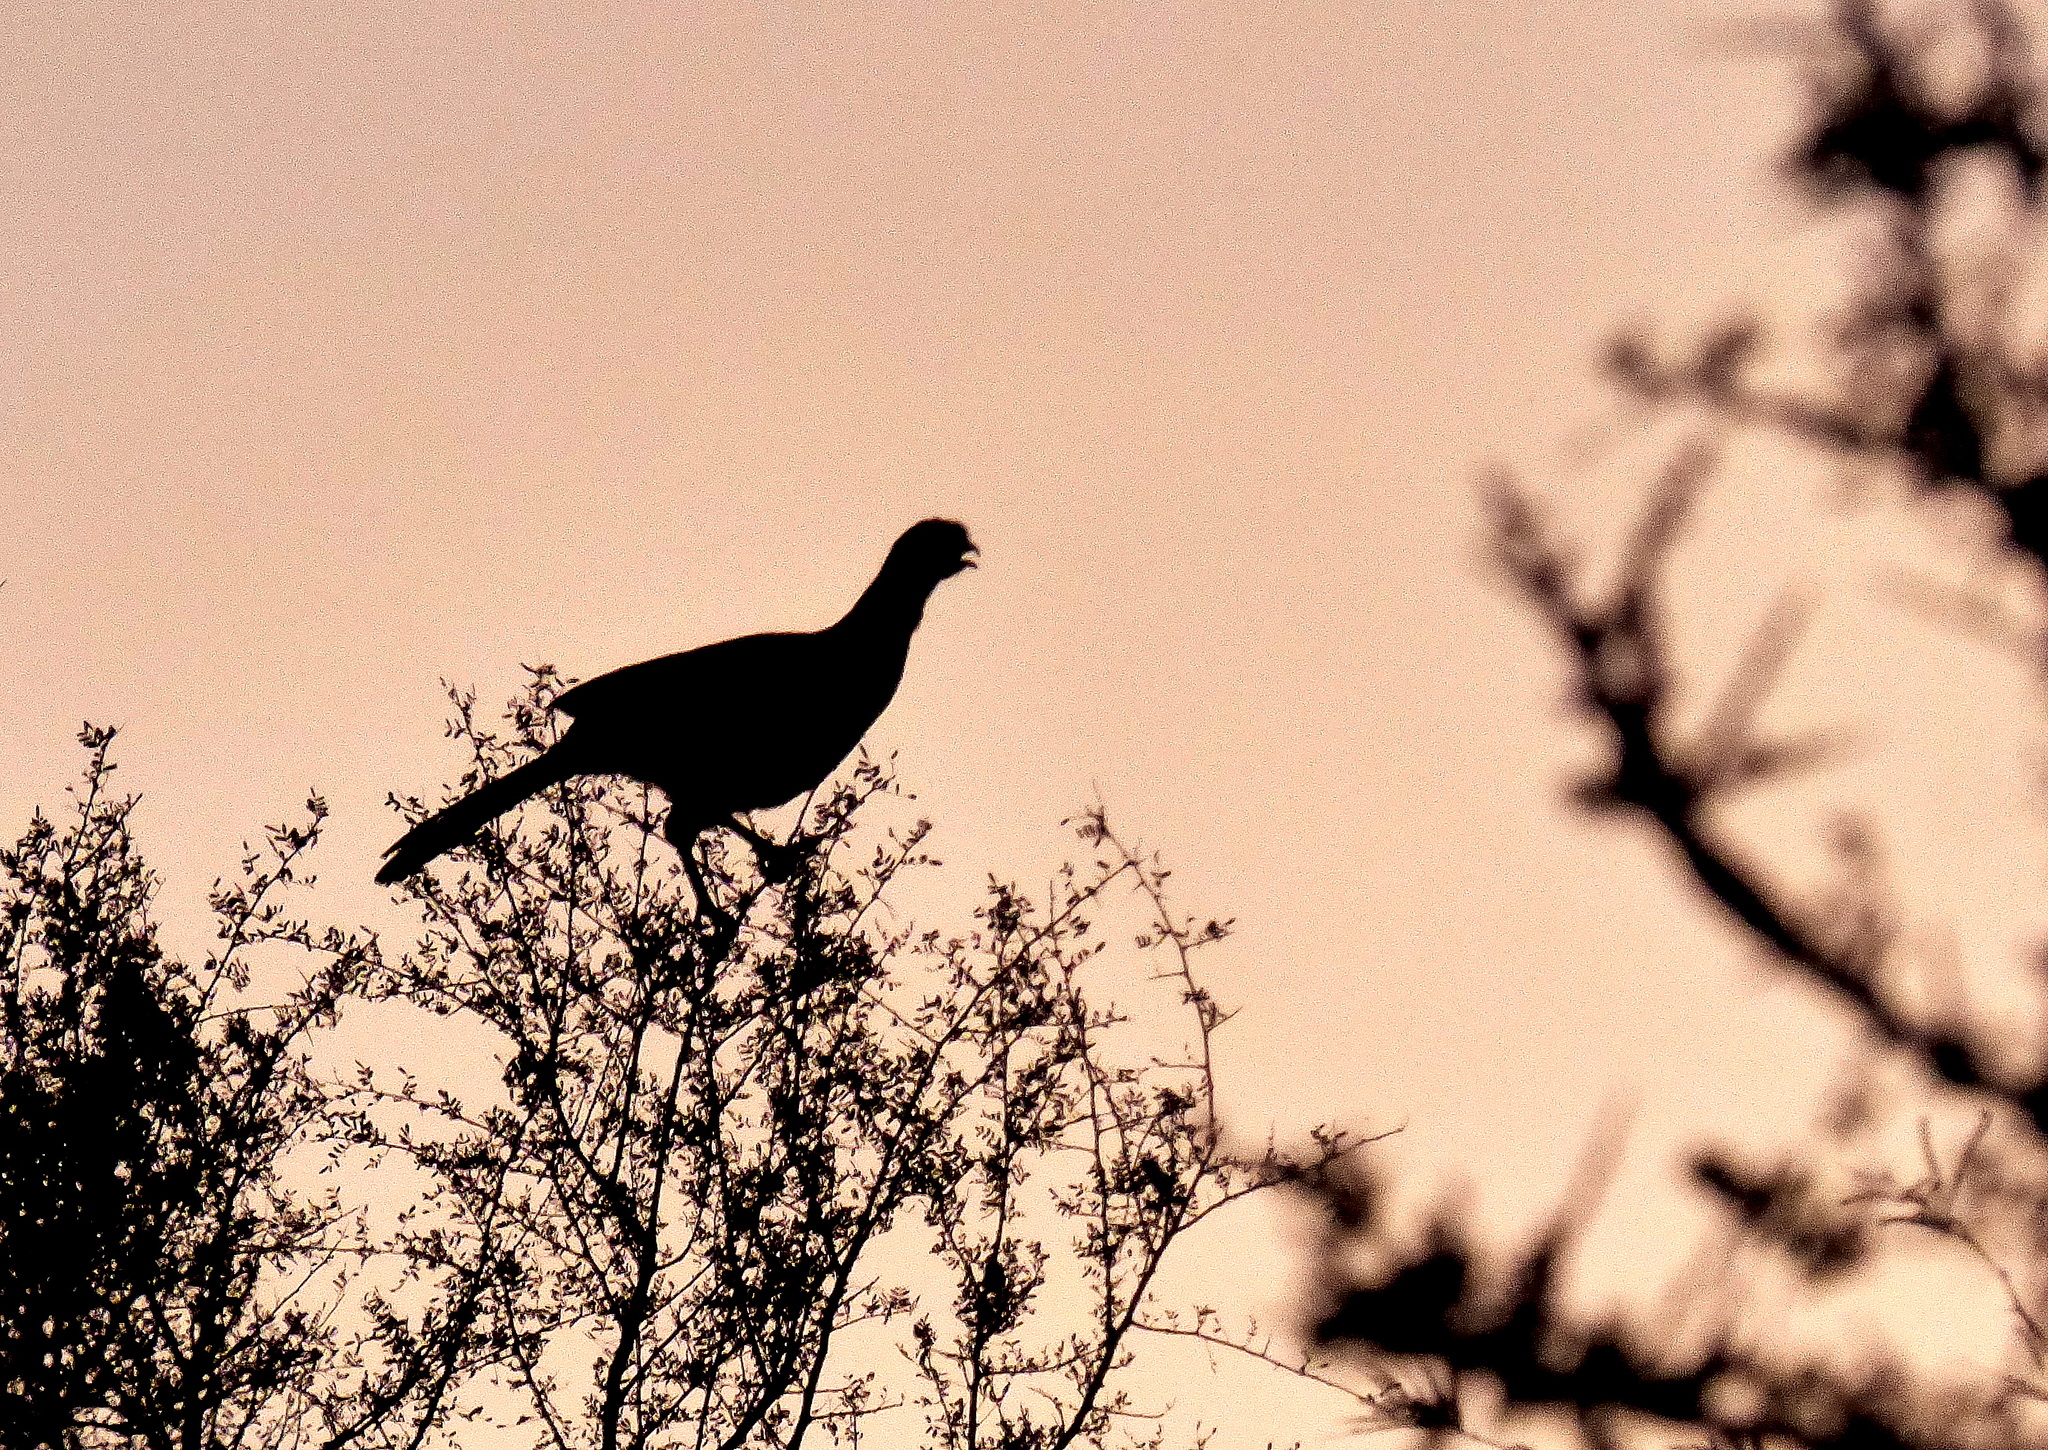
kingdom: Animalia
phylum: Chordata
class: Aves
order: Galliformes
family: Cracidae
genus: Ortalis
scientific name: Ortalis canicollis
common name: Chaco chachalaca
